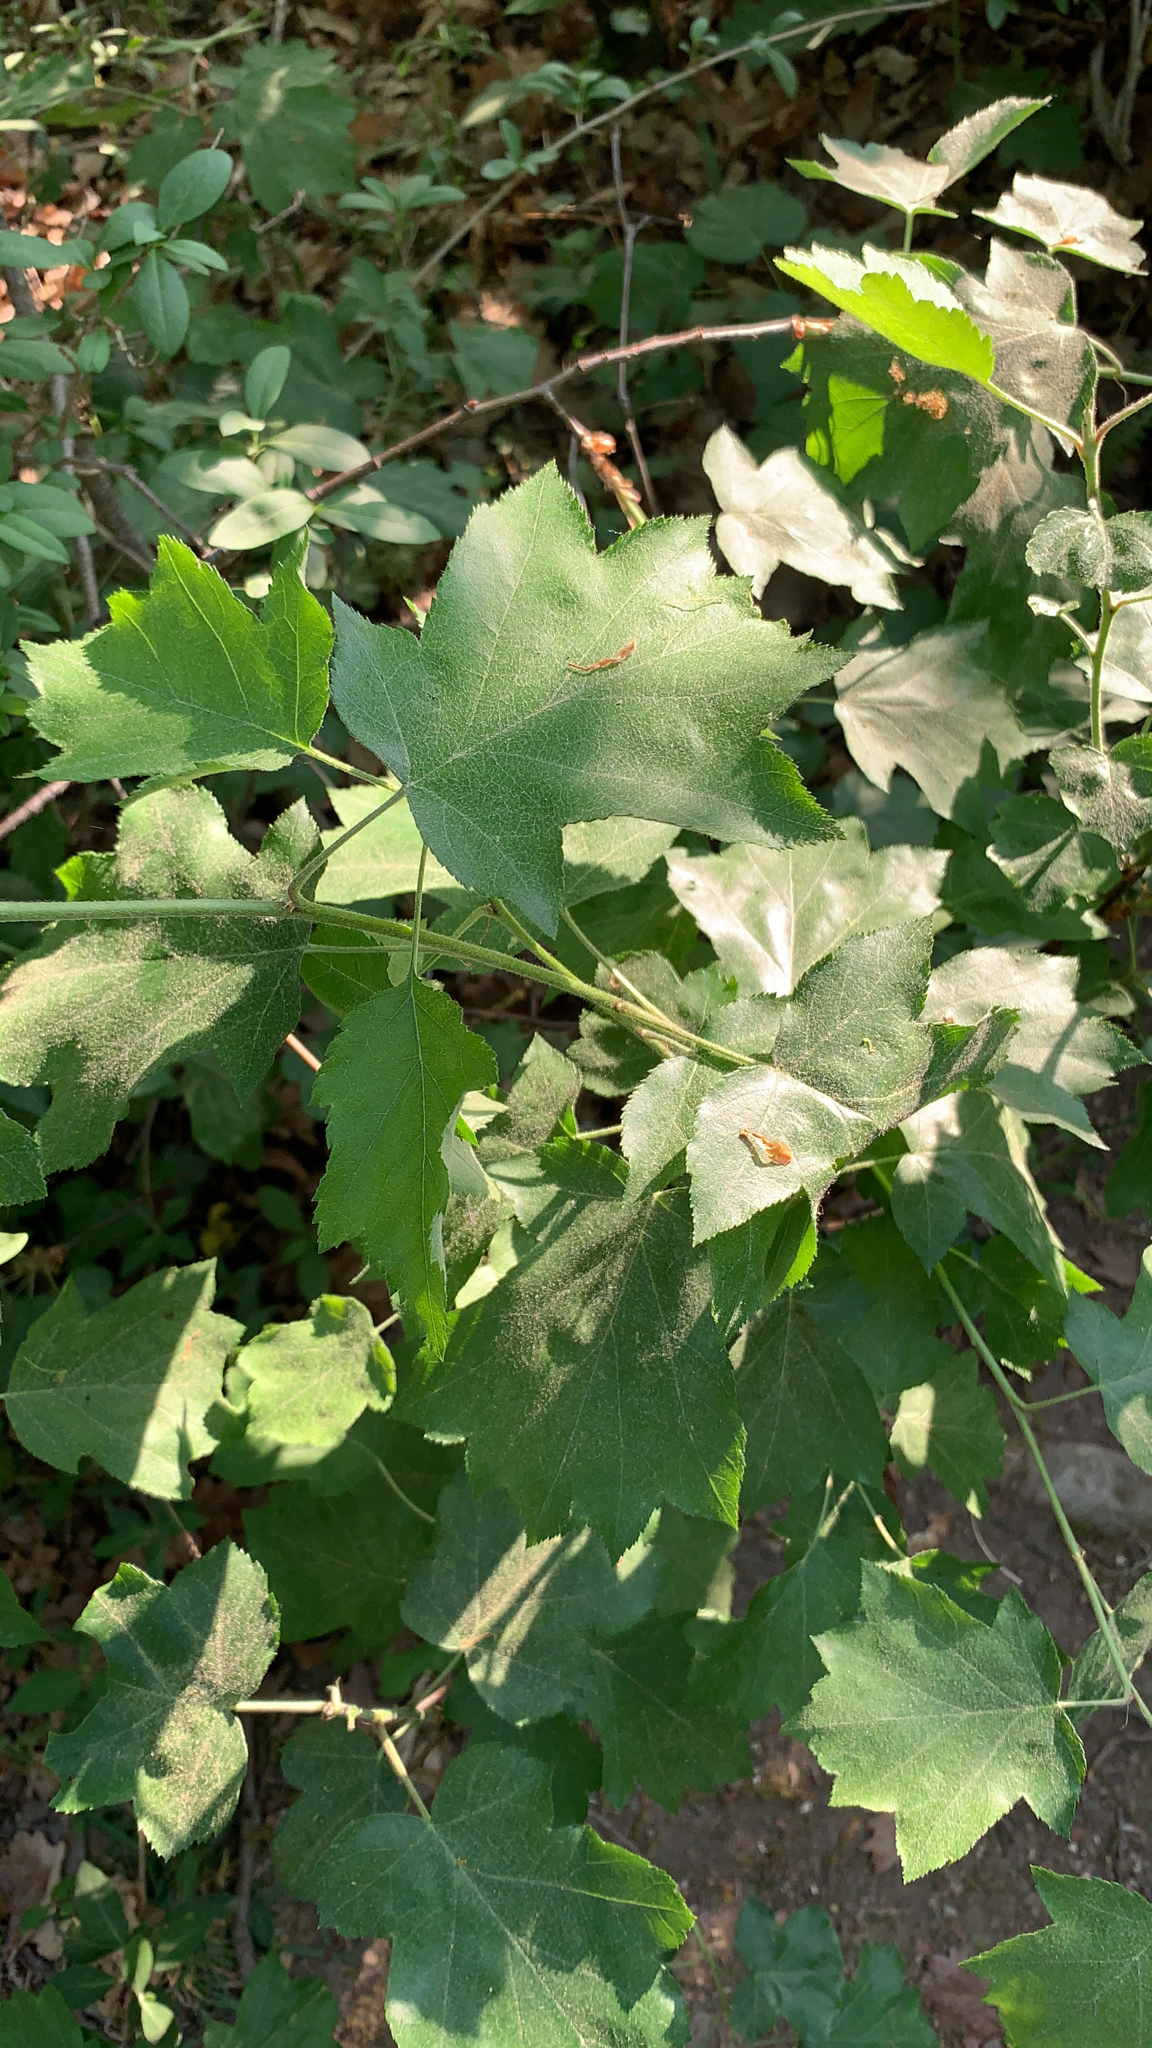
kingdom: Plantae
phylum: Tracheophyta
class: Magnoliopsida
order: Rosales
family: Rosaceae
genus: Torminalis
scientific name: Torminalis glaberrima
